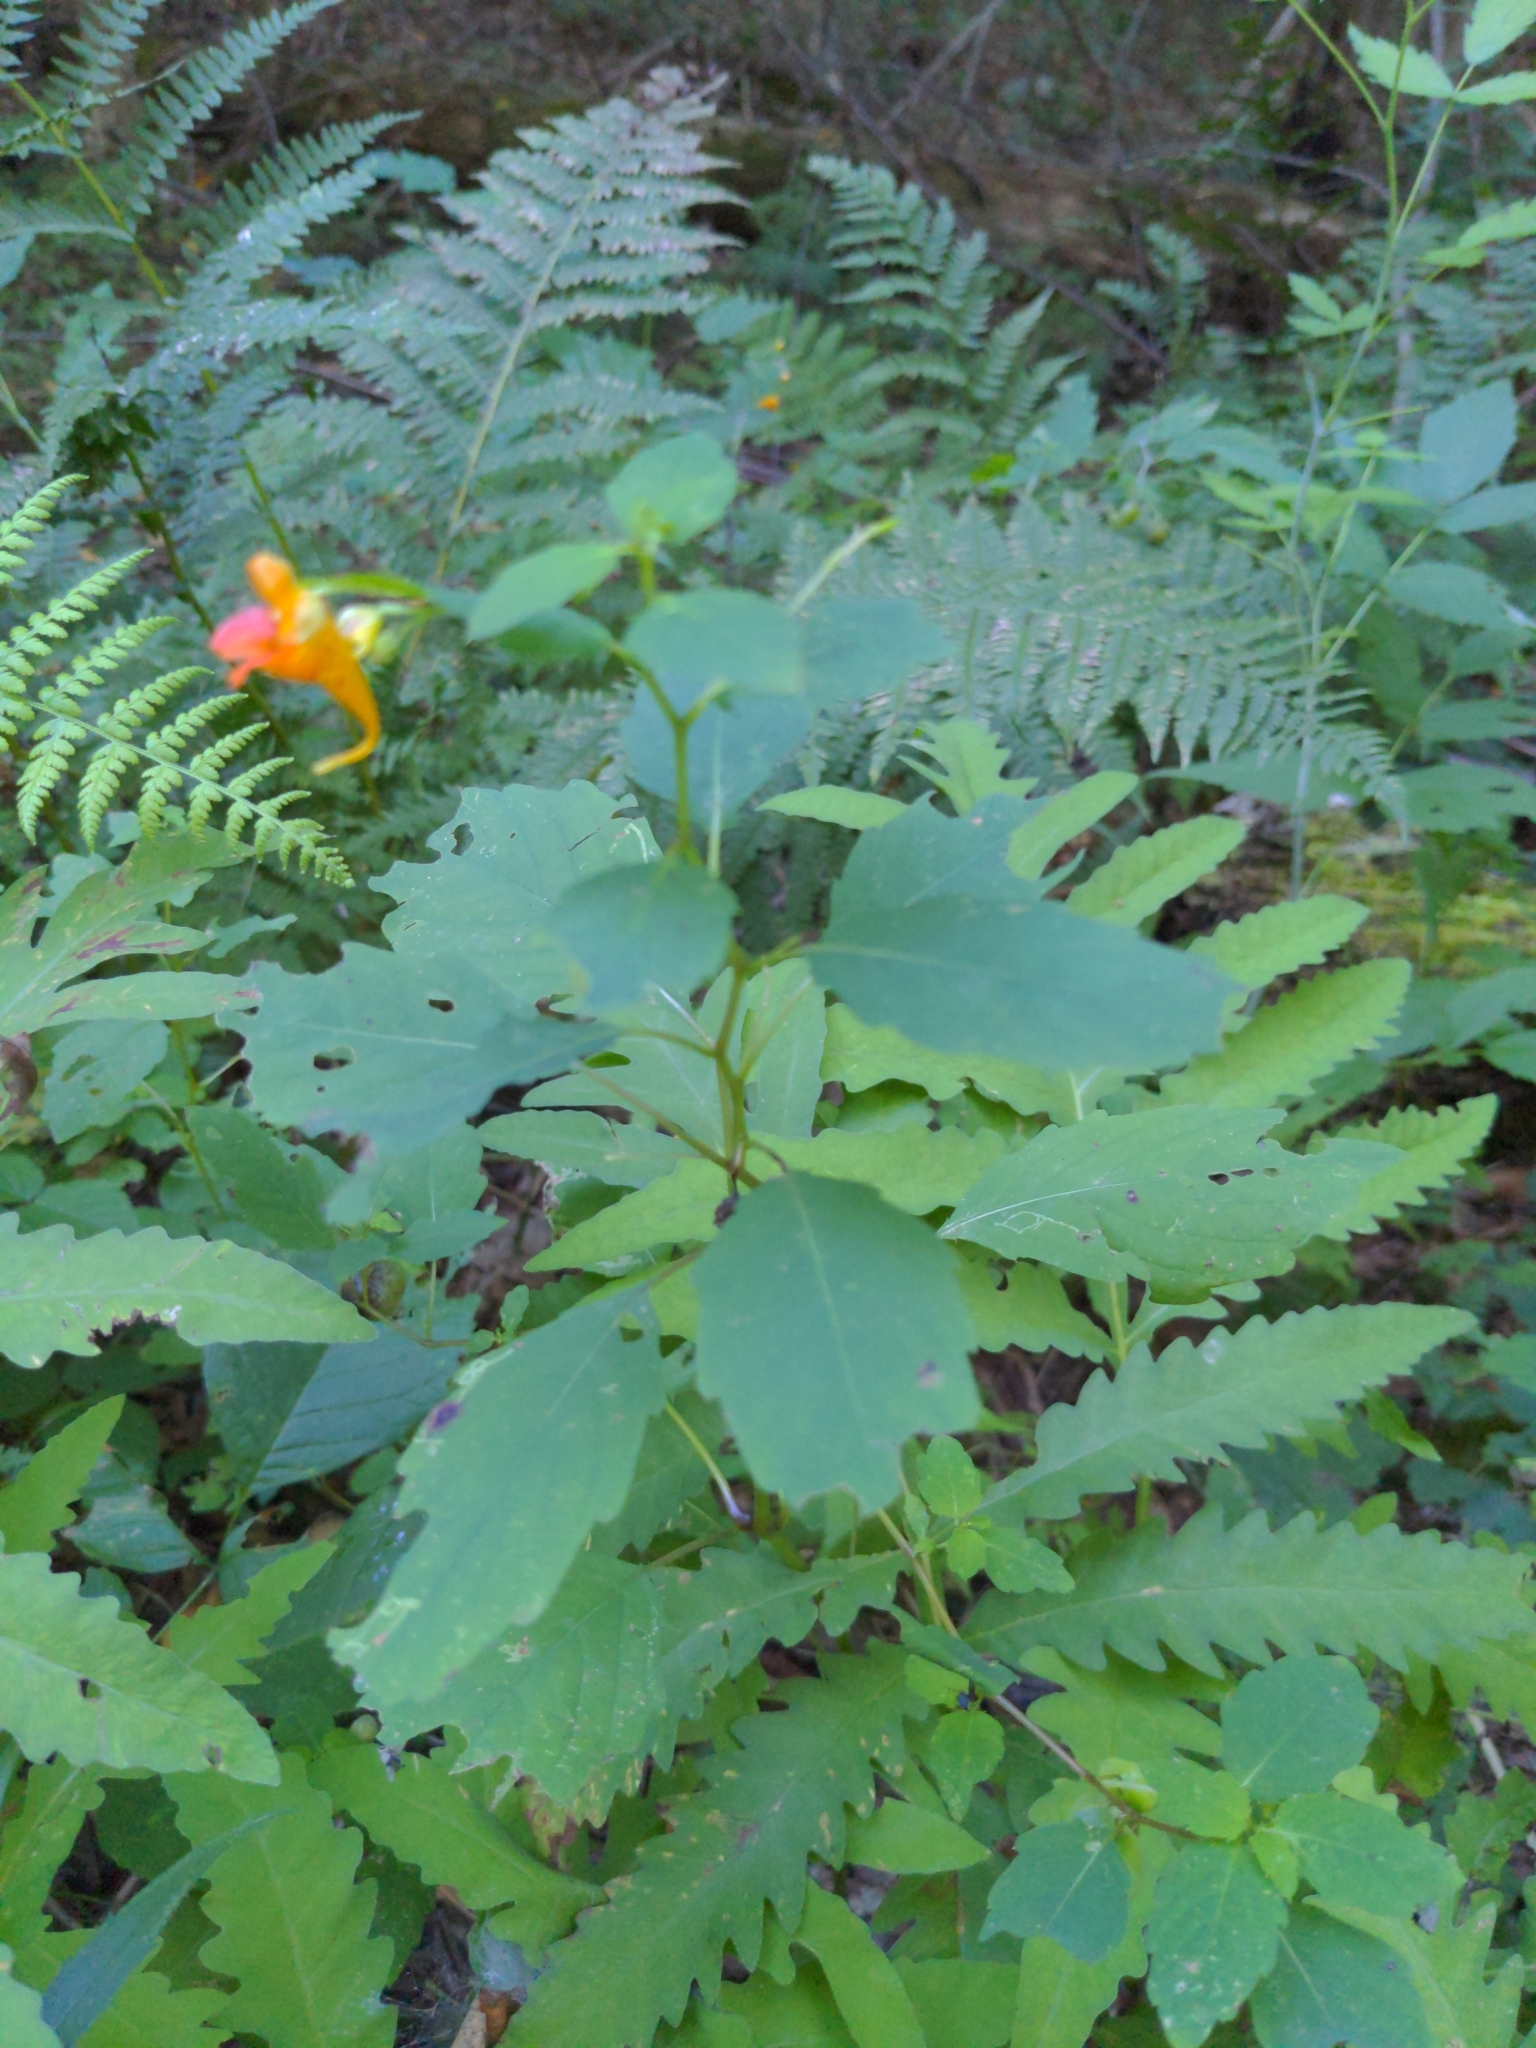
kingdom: Plantae
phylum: Tracheophyta
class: Magnoliopsida
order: Ericales
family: Balsaminaceae
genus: Impatiens
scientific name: Impatiens capensis
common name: Orange balsam
